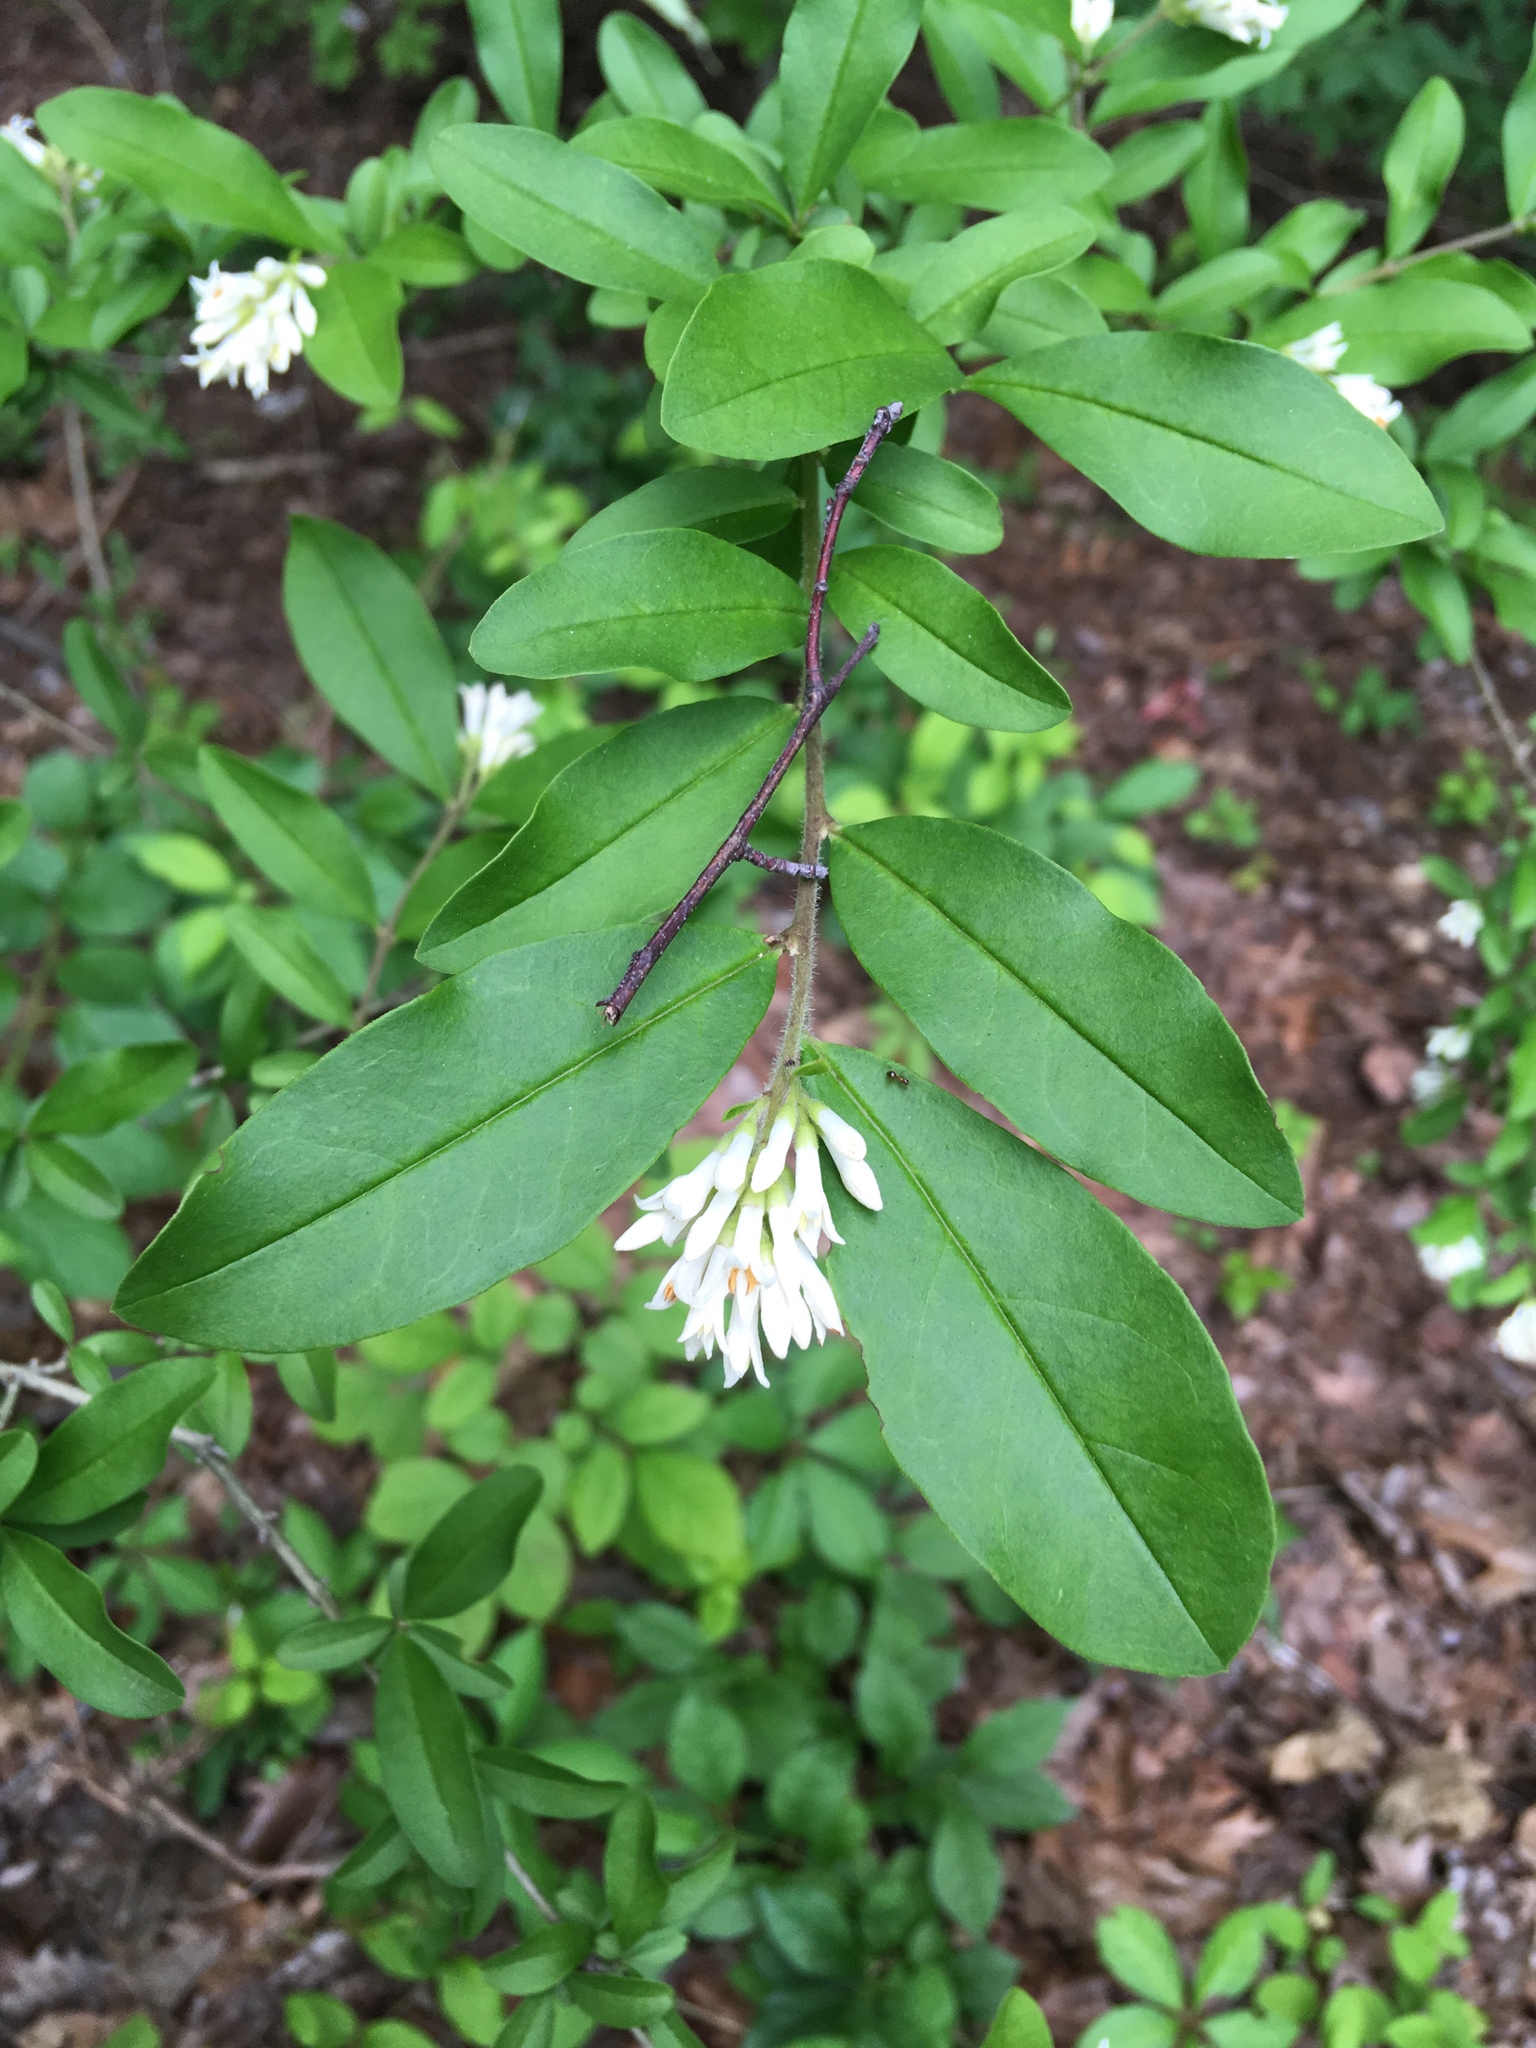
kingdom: Plantae
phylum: Tracheophyta
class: Magnoliopsida
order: Lamiales
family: Oleaceae
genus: Ligustrum
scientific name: Ligustrum obtusifolium
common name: Border privet
